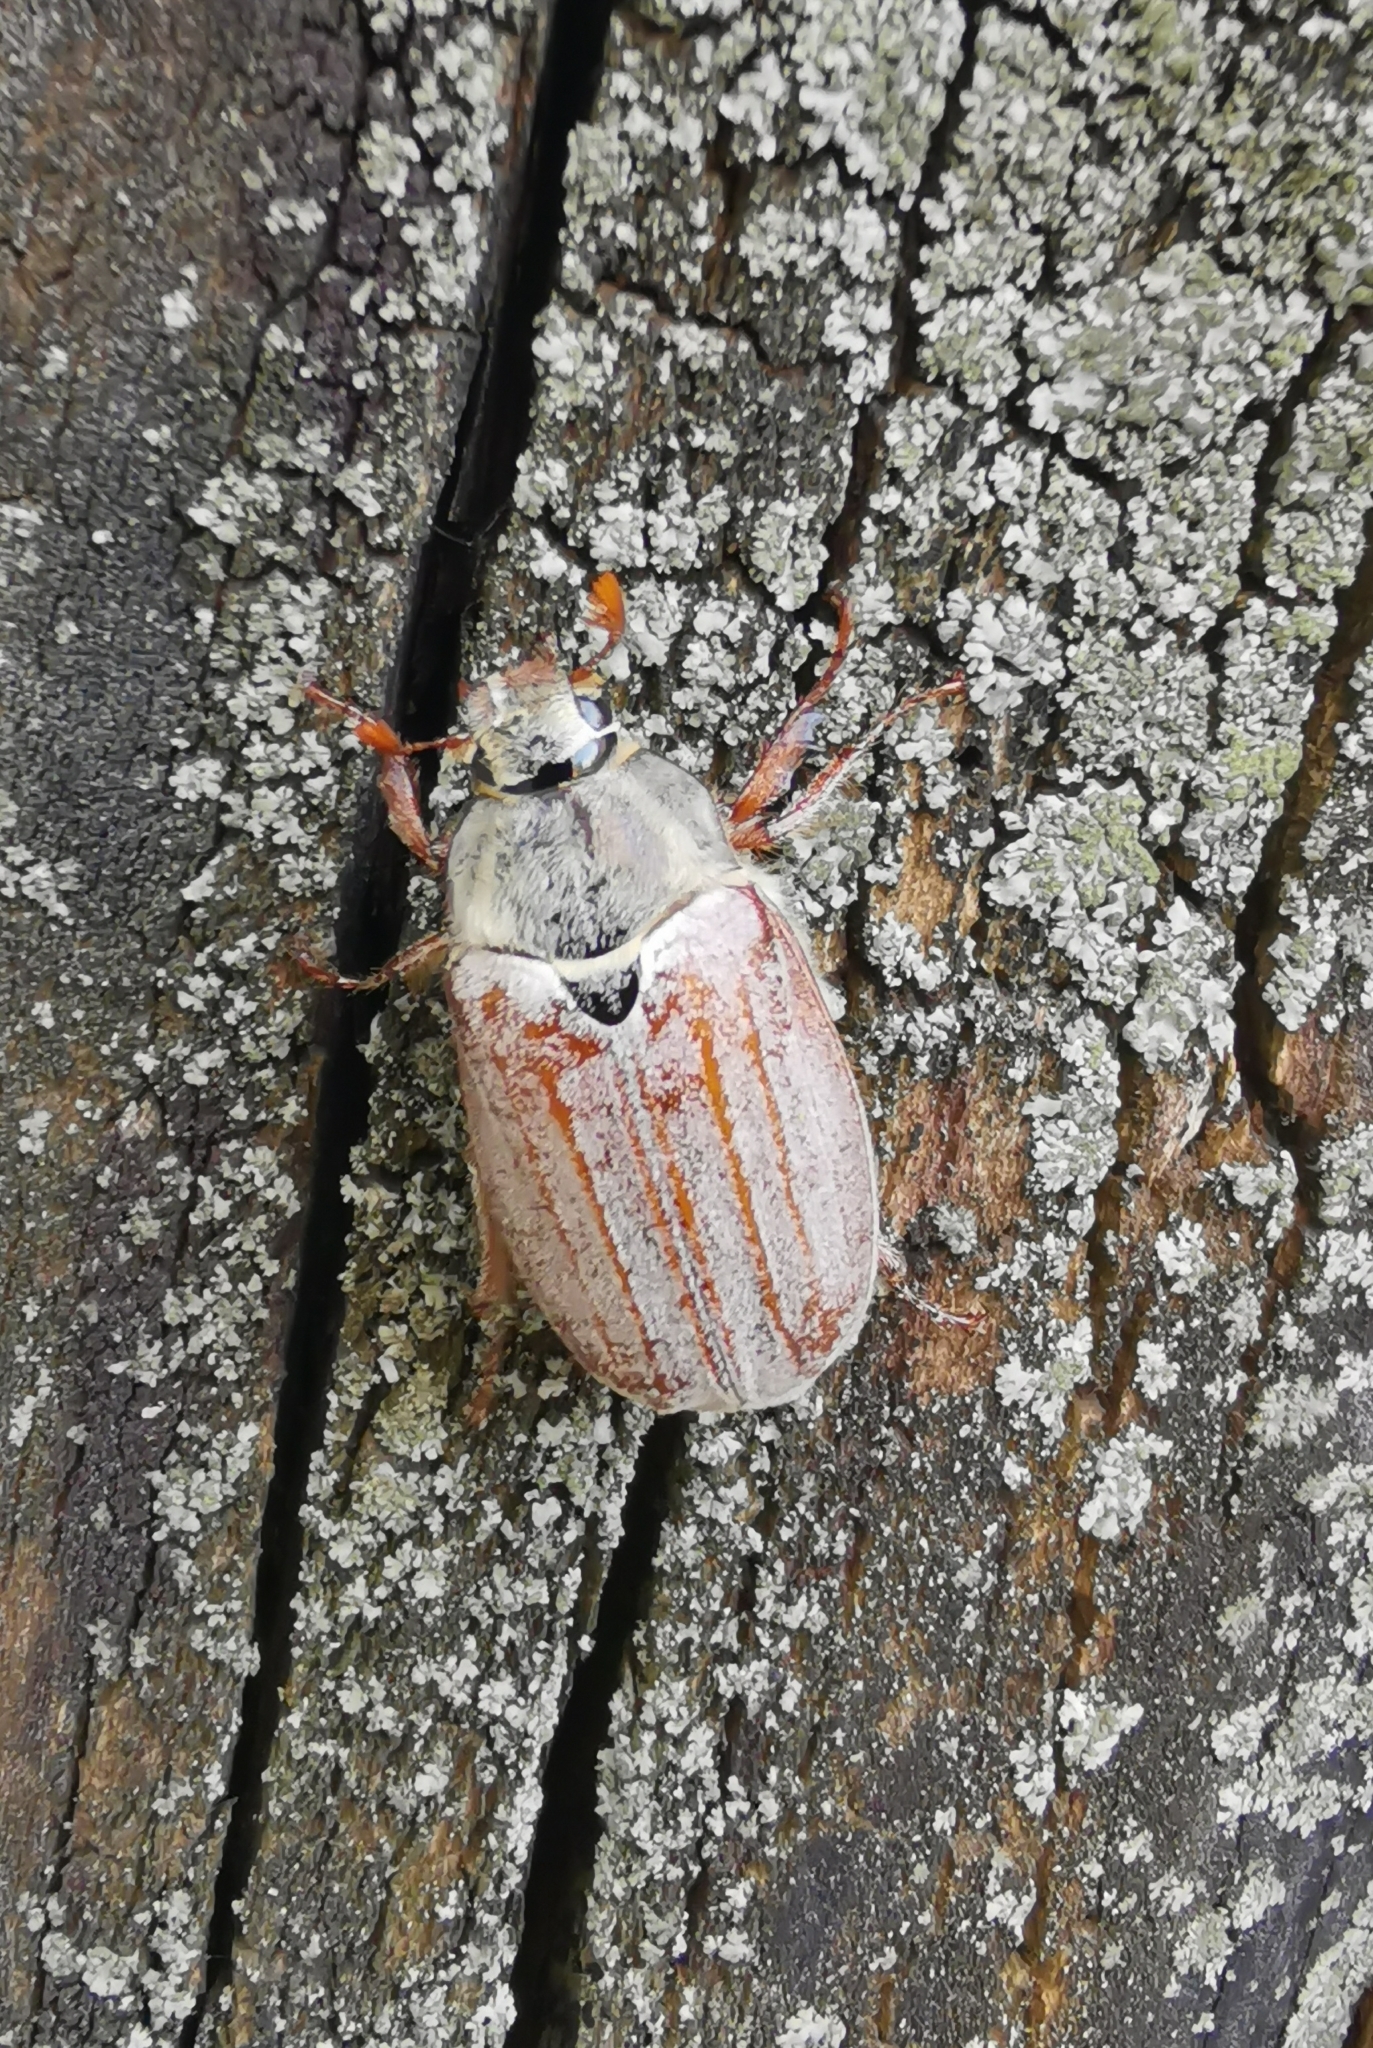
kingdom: Animalia
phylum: Arthropoda
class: Insecta
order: Coleoptera
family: Scarabaeidae
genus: Melolontha
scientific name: Melolontha melolontha
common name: Cockchafer maybeetle
